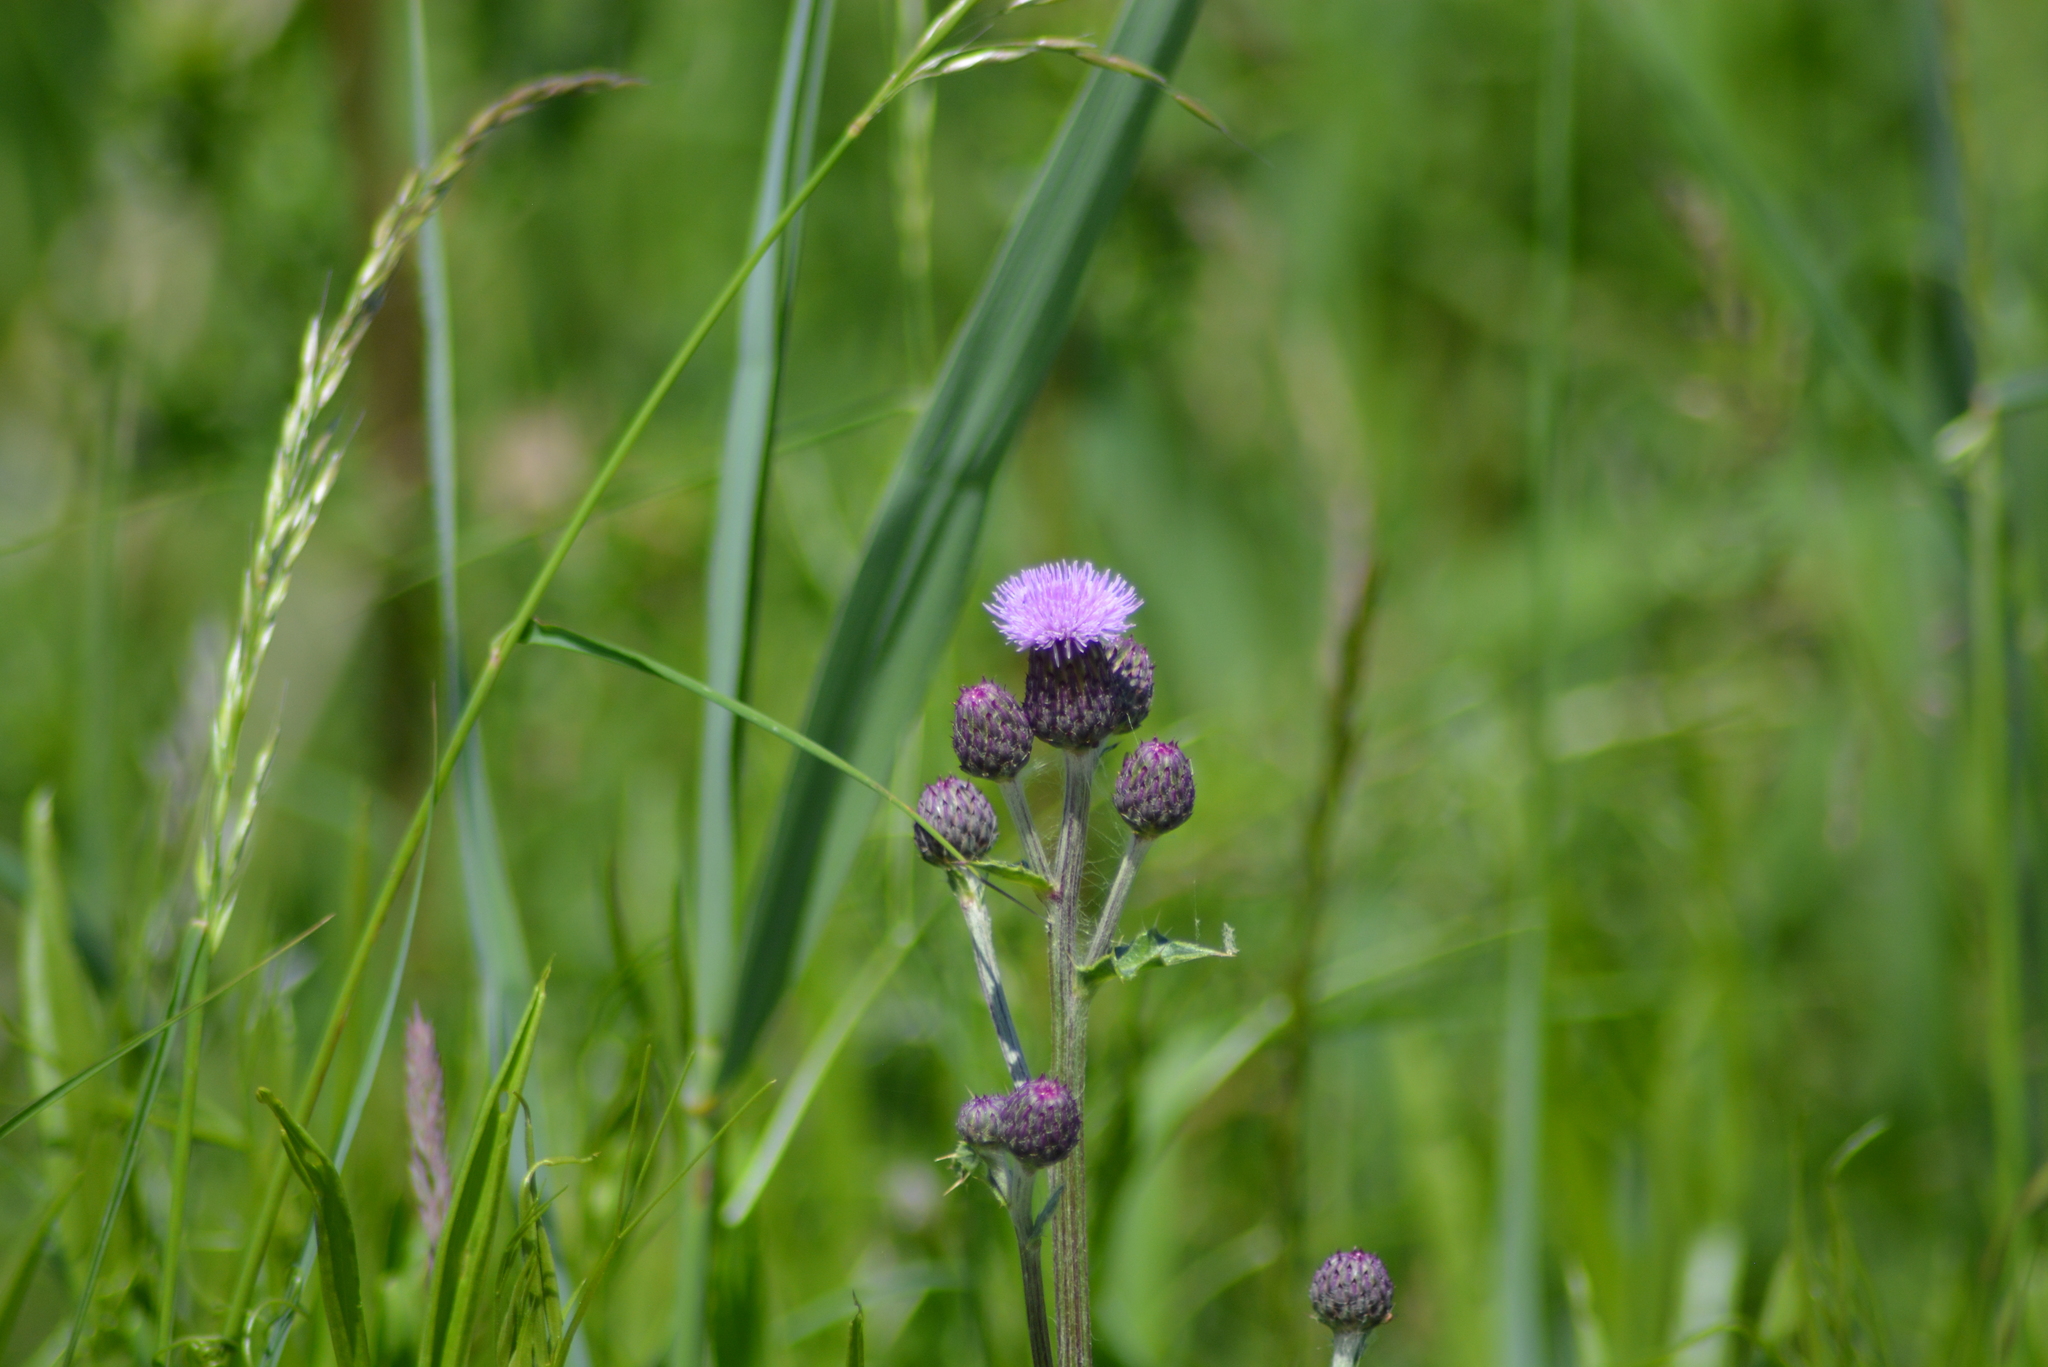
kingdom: Plantae
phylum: Tracheophyta
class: Magnoliopsida
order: Asterales
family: Asteraceae
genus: Cirsium
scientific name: Cirsium arvense
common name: Creeping thistle
